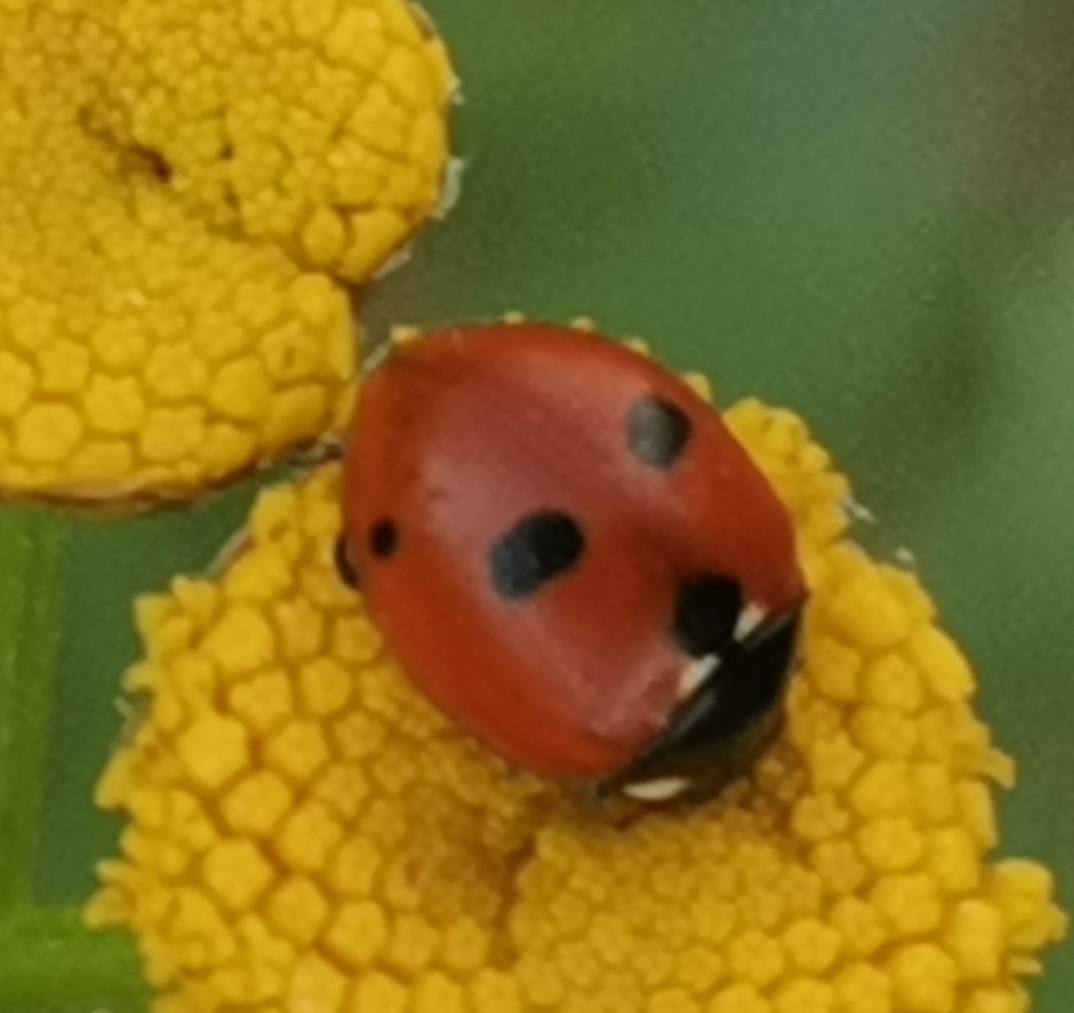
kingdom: Animalia
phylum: Arthropoda
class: Insecta
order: Coleoptera
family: Coccinellidae
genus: Coccinella
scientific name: Coccinella quinquepunctata
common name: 5-spot ladybird
